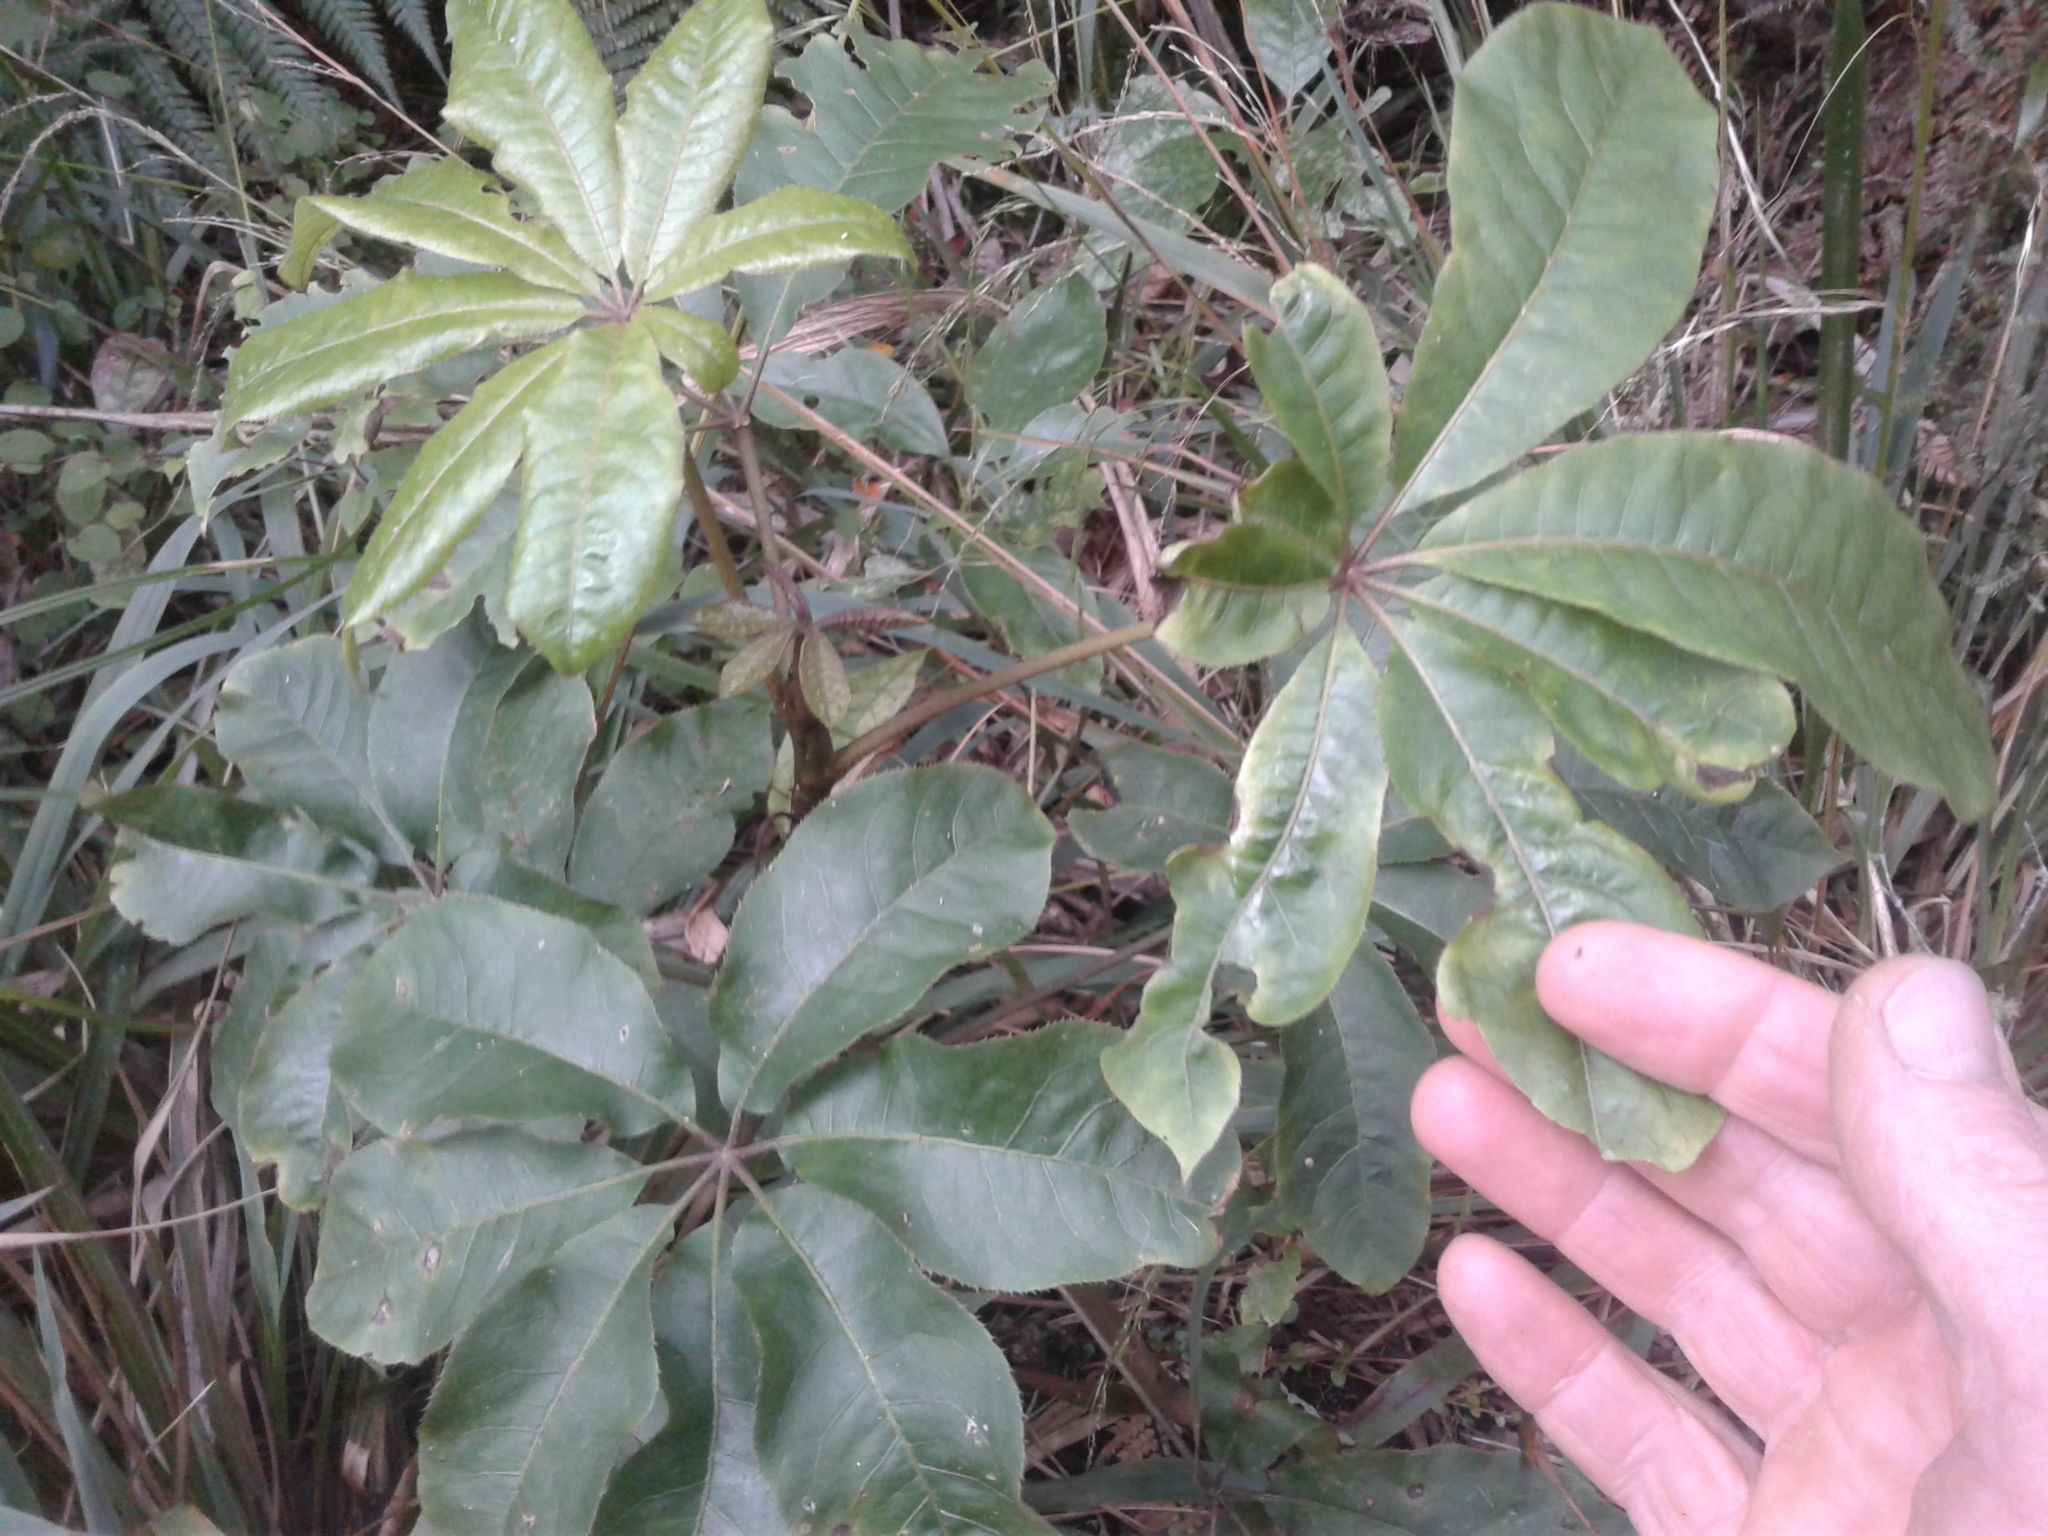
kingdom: Plantae
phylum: Tracheophyta
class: Magnoliopsida
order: Apiales
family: Araliaceae
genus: Schefflera
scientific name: Schefflera digitata
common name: Pate
